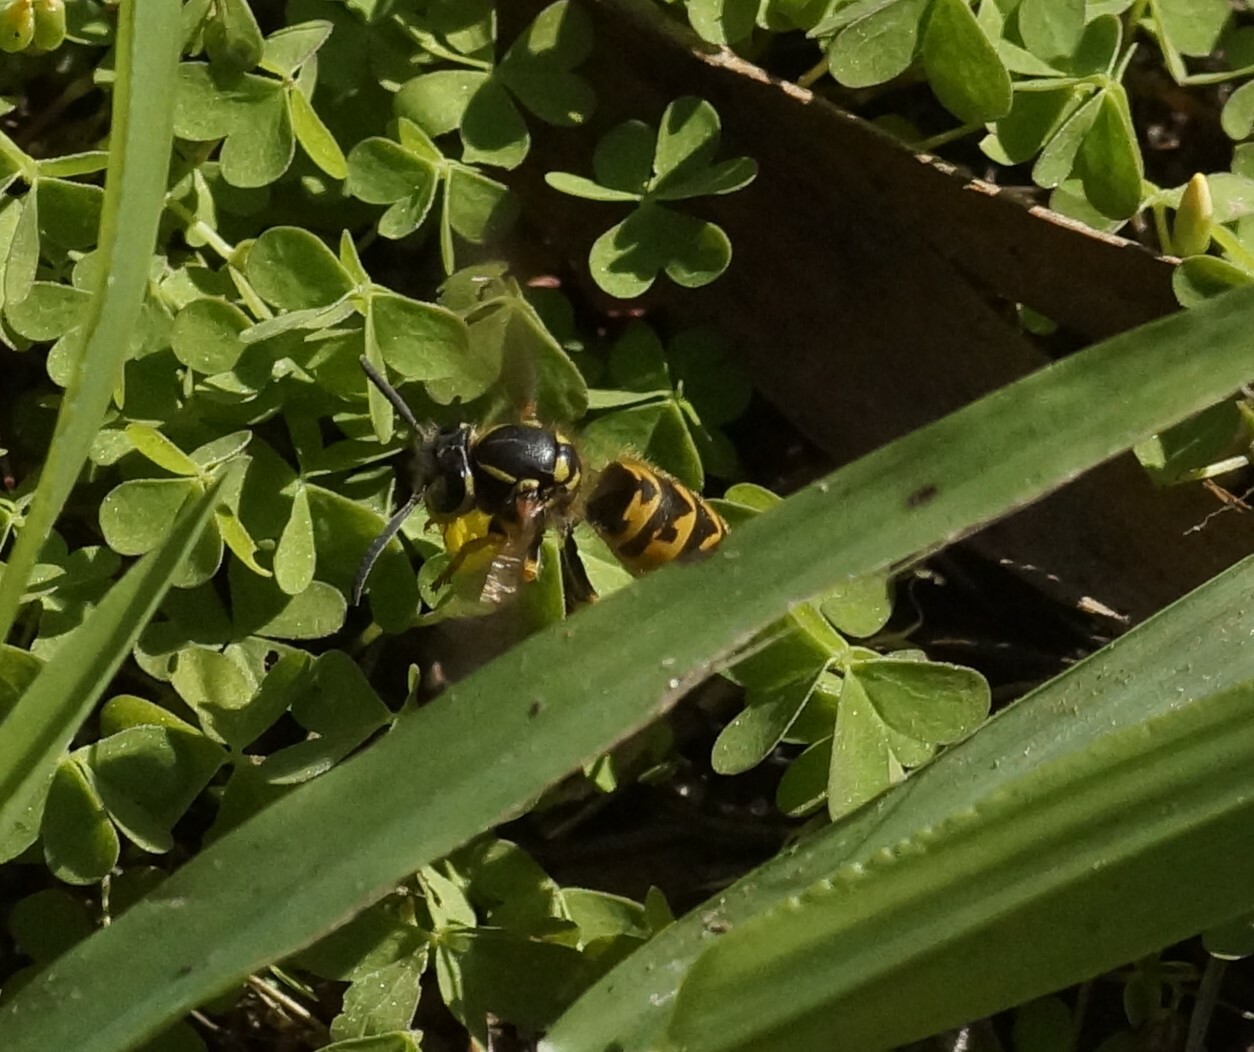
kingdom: Animalia
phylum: Arthropoda
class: Insecta
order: Hymenoptera
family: Vespidae
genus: Vespula
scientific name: Vespula germanica
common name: German wasp
